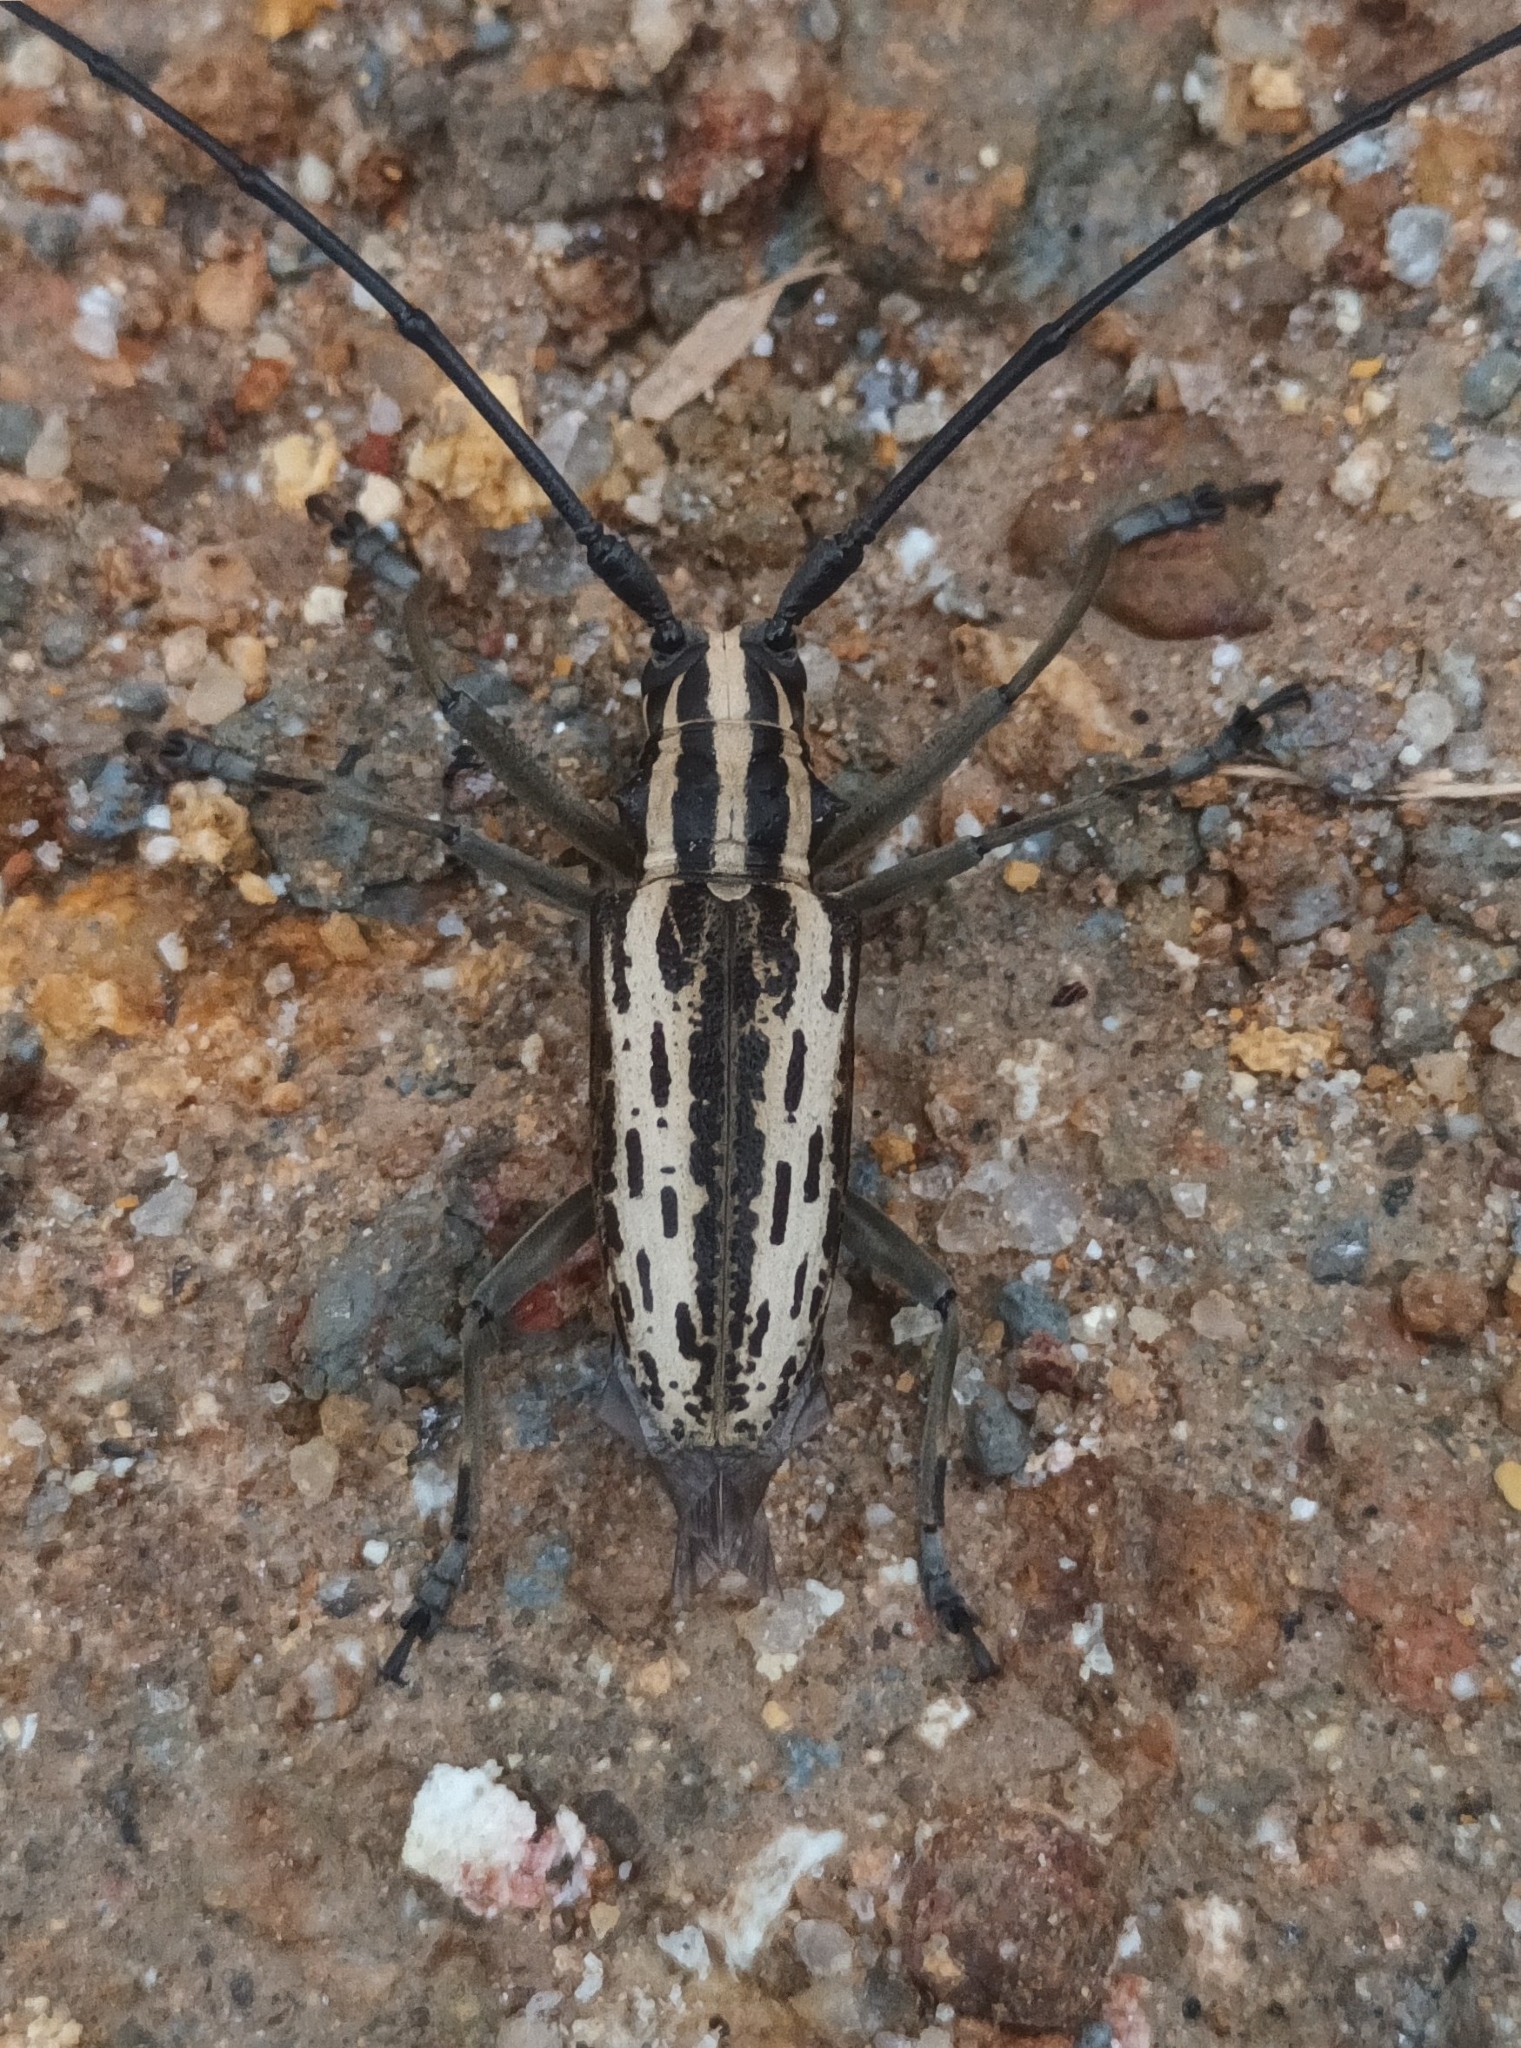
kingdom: Animalia
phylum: Arthropoda
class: Insecta
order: Coleoptera
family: Cerambycidae
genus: Epepeotes
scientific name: Epepeotes uncinatus
